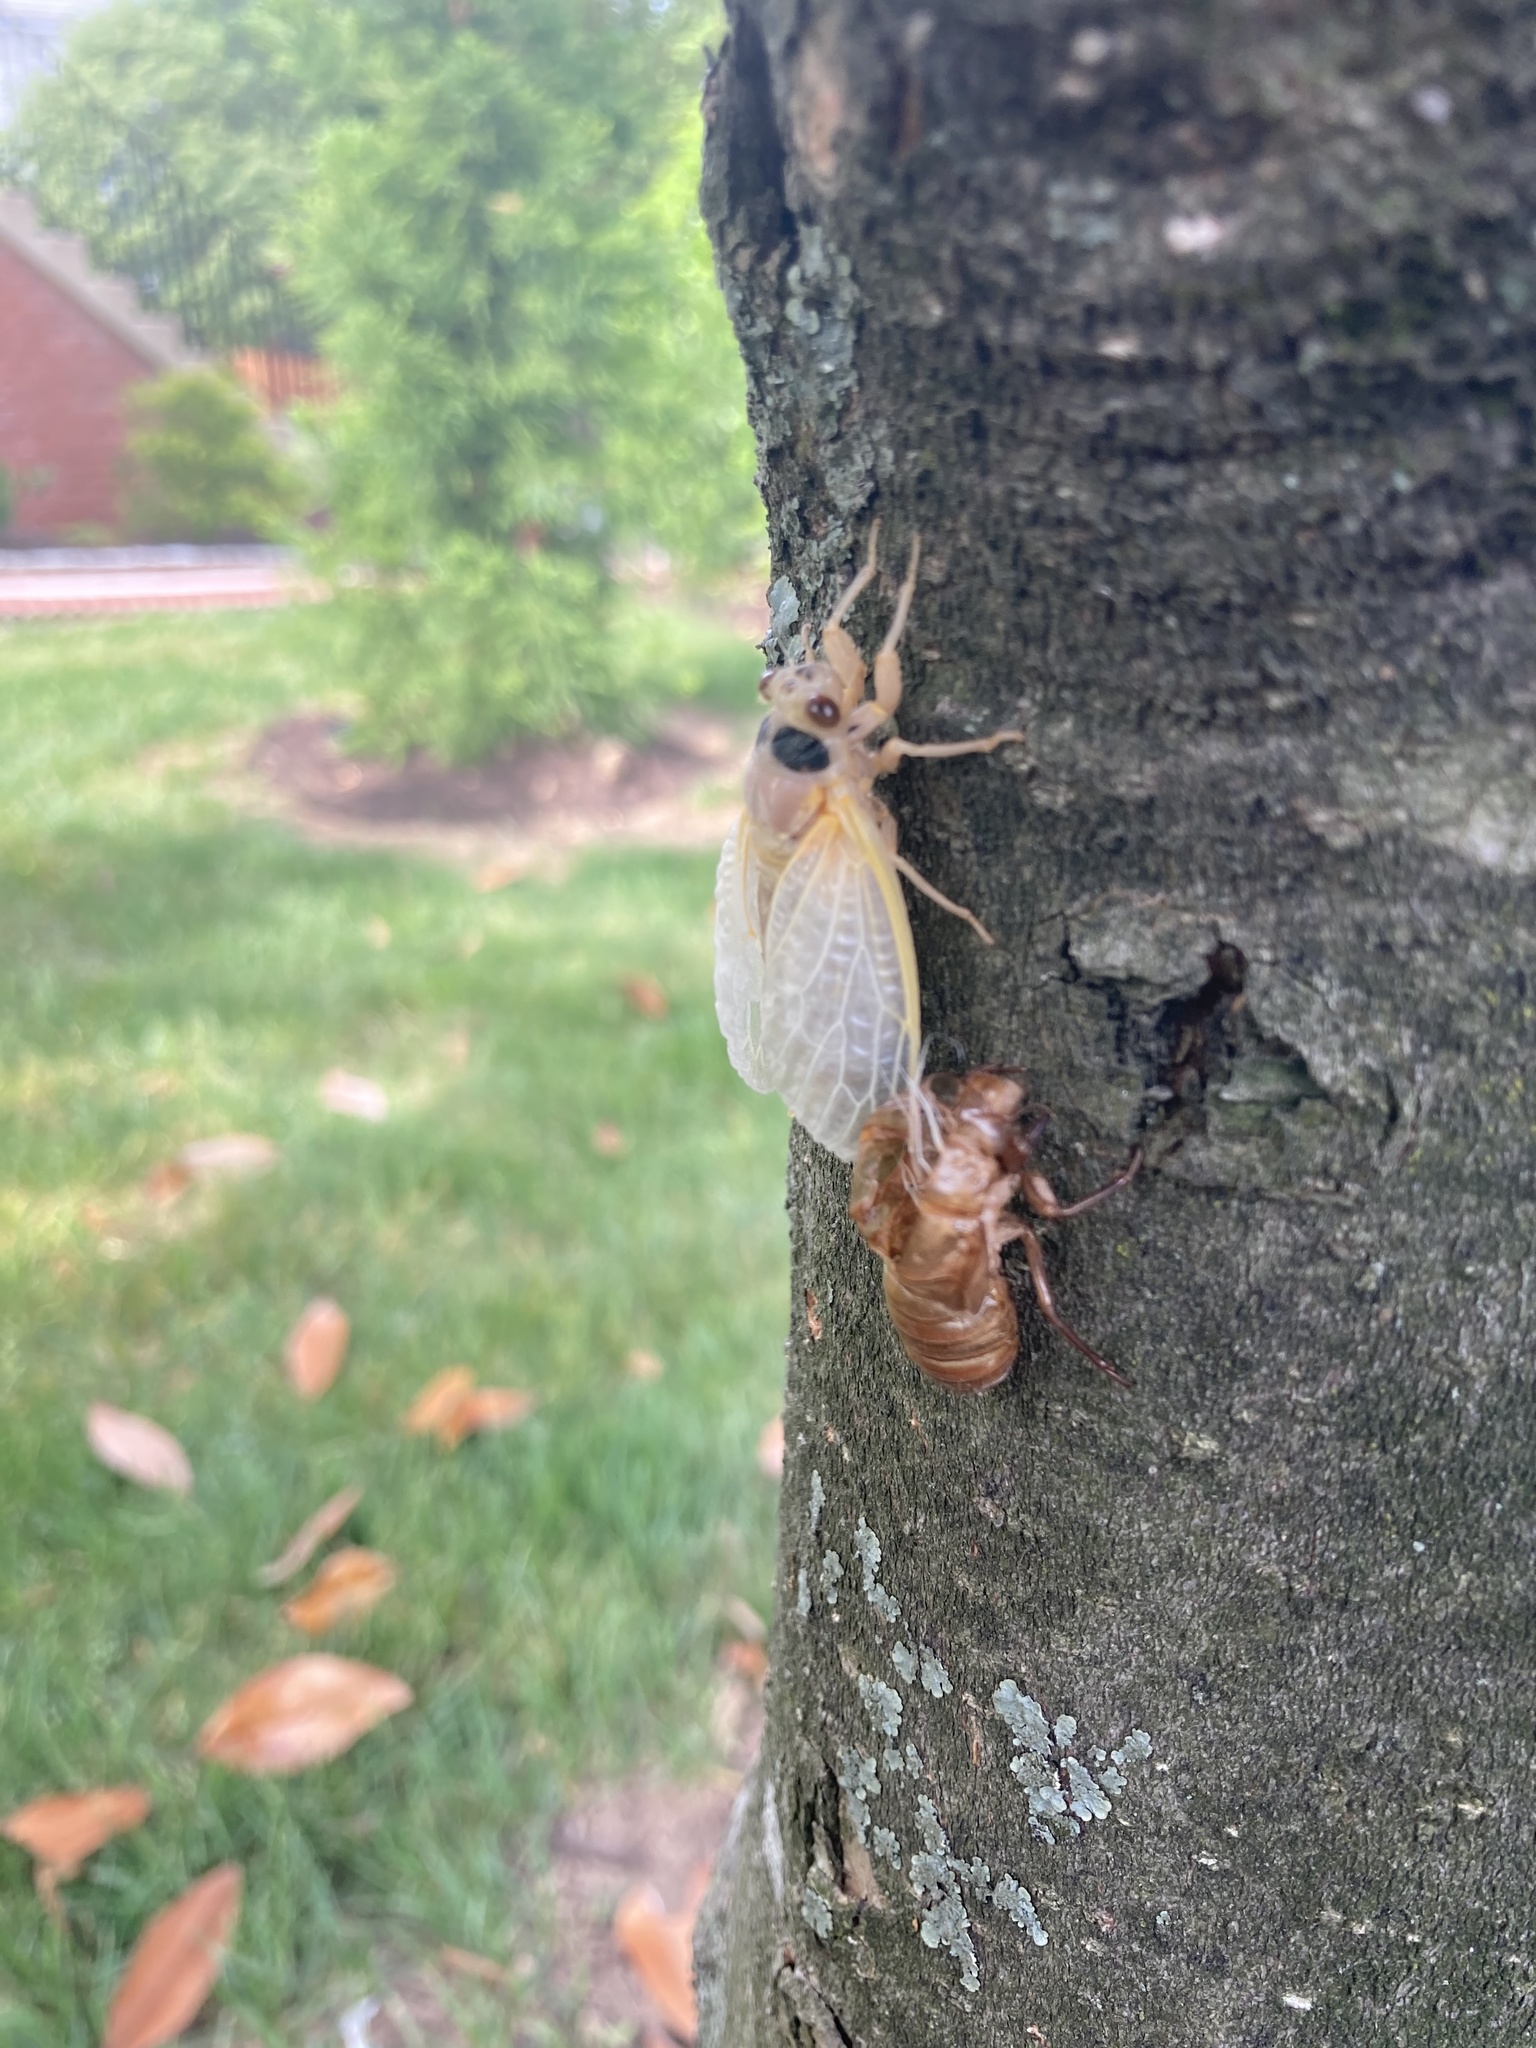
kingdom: Animalia
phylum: Arthropoda
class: Insecta
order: Hemiptera
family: Cicadidae
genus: Magicicada
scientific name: Magicicada
